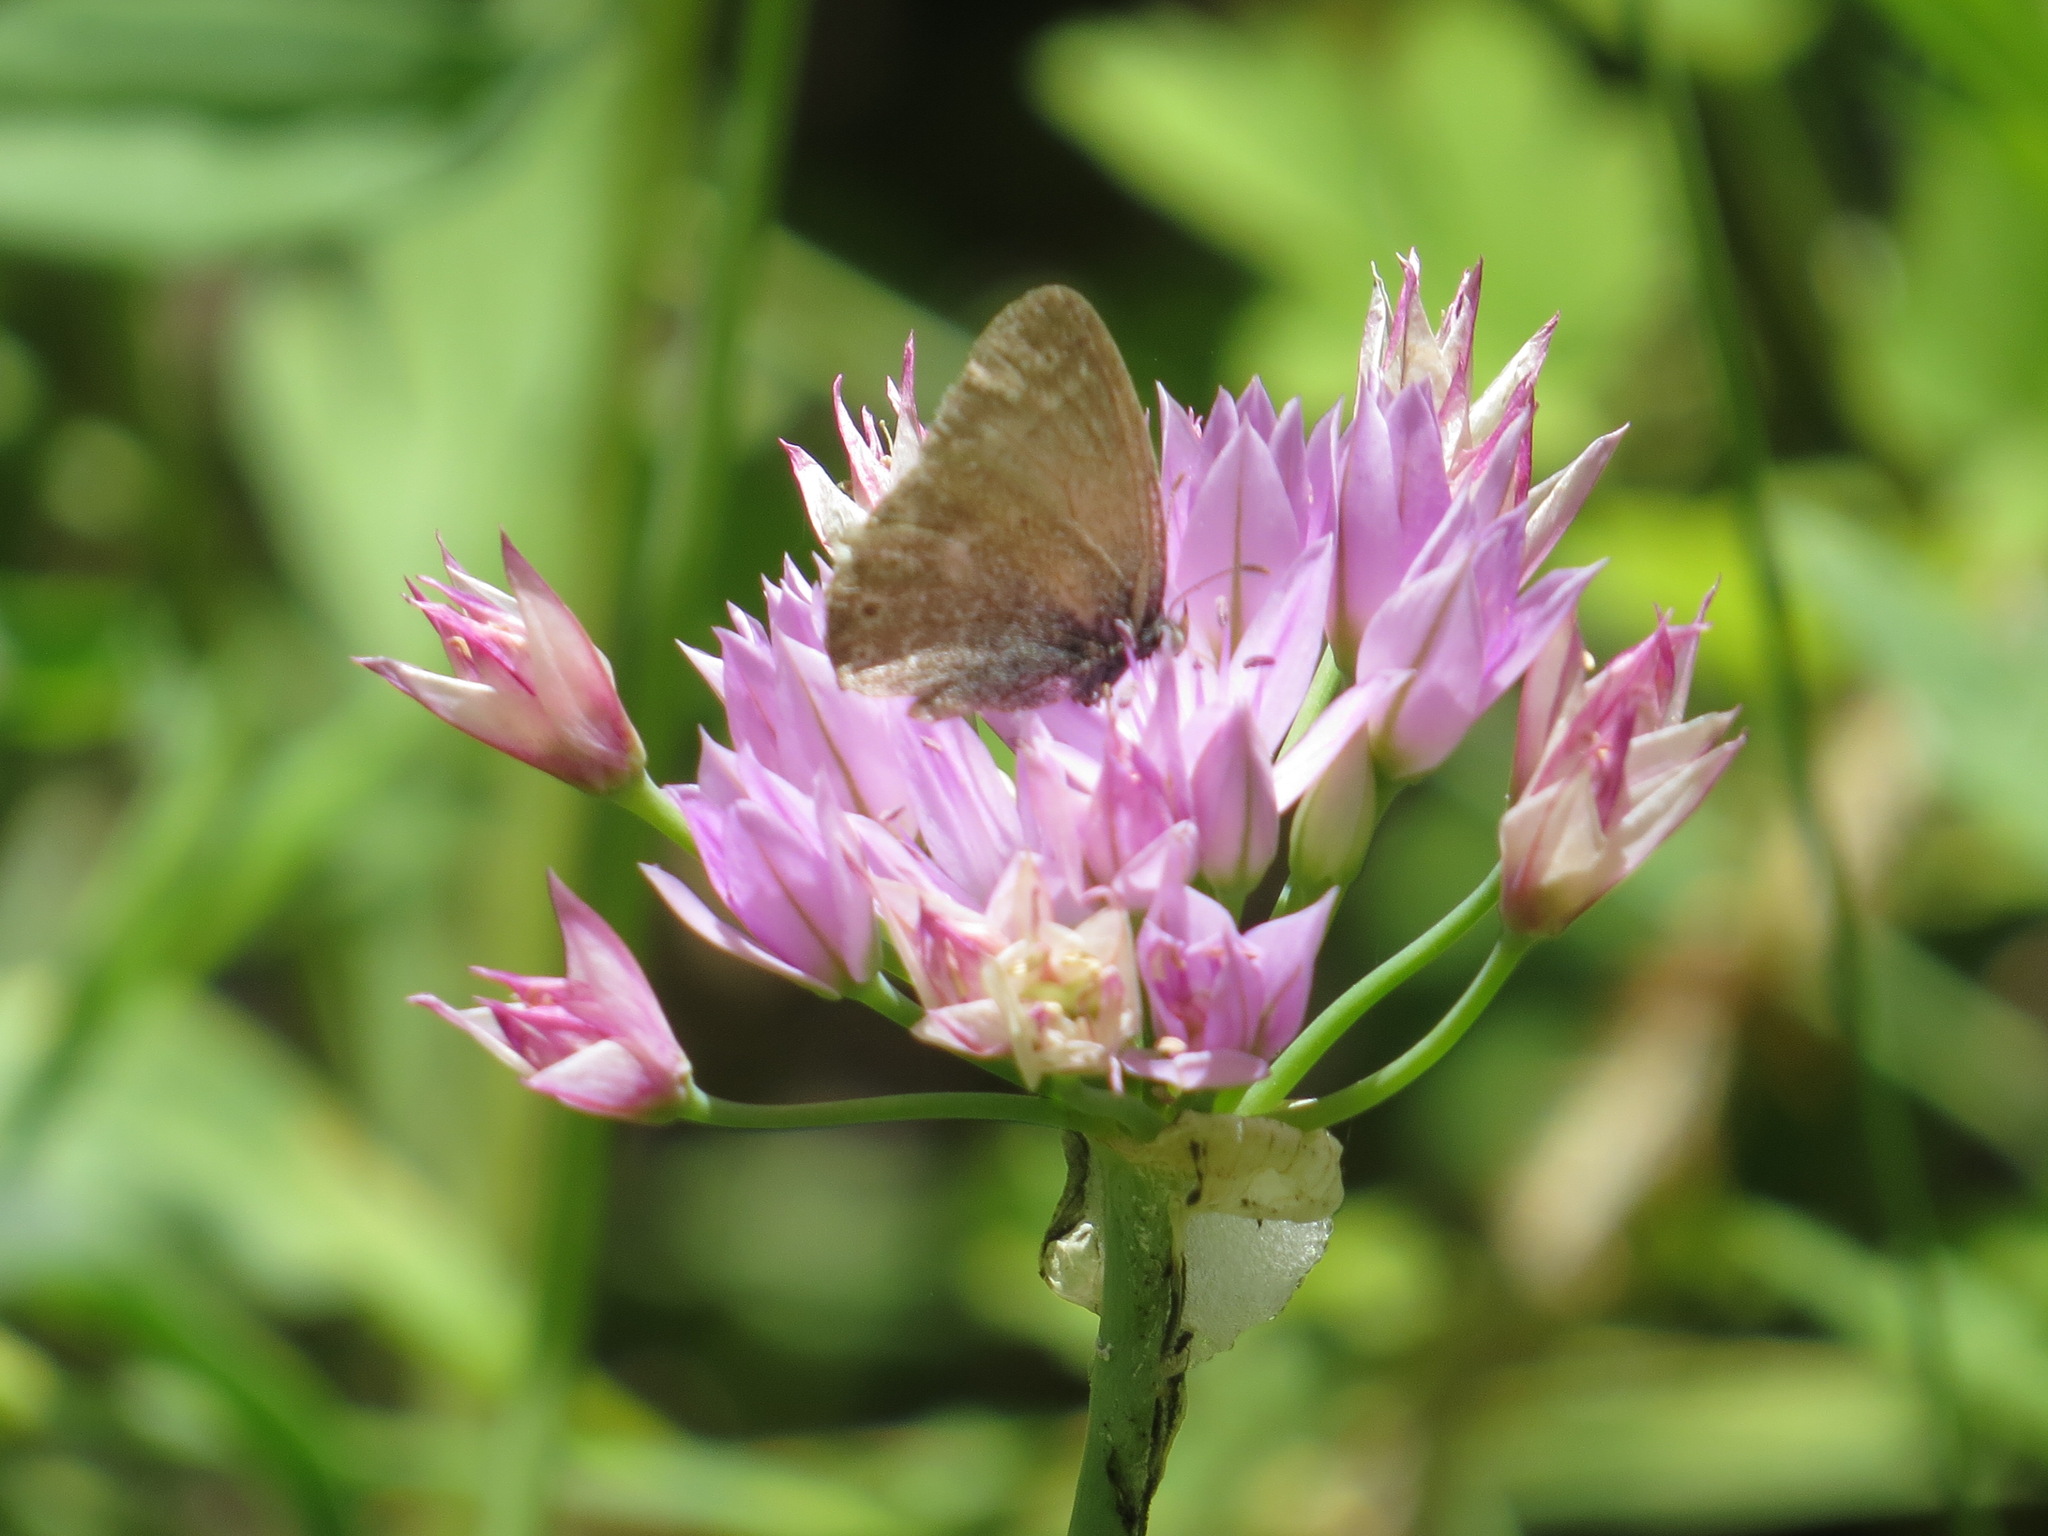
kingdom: Animalia
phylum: Arthropoda
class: Insecta
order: Lepidoptera
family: Nymphalidae
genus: Coenonympha
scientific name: Coenonympha california
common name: Common ringlet
